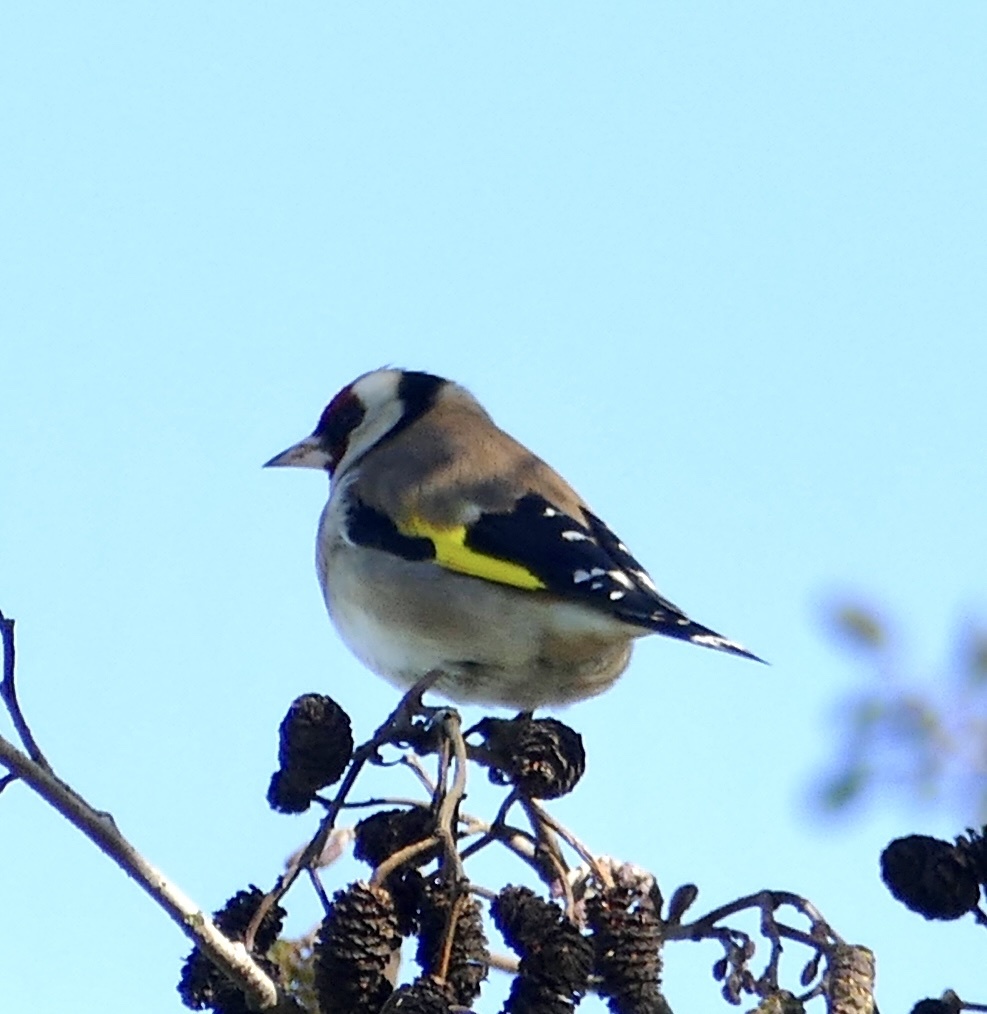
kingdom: Animalia
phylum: Chordata
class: Aves
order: Passeriformes
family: Fringillidae
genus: Carduelis
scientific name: Carduelis carduelis
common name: European goldfinch
